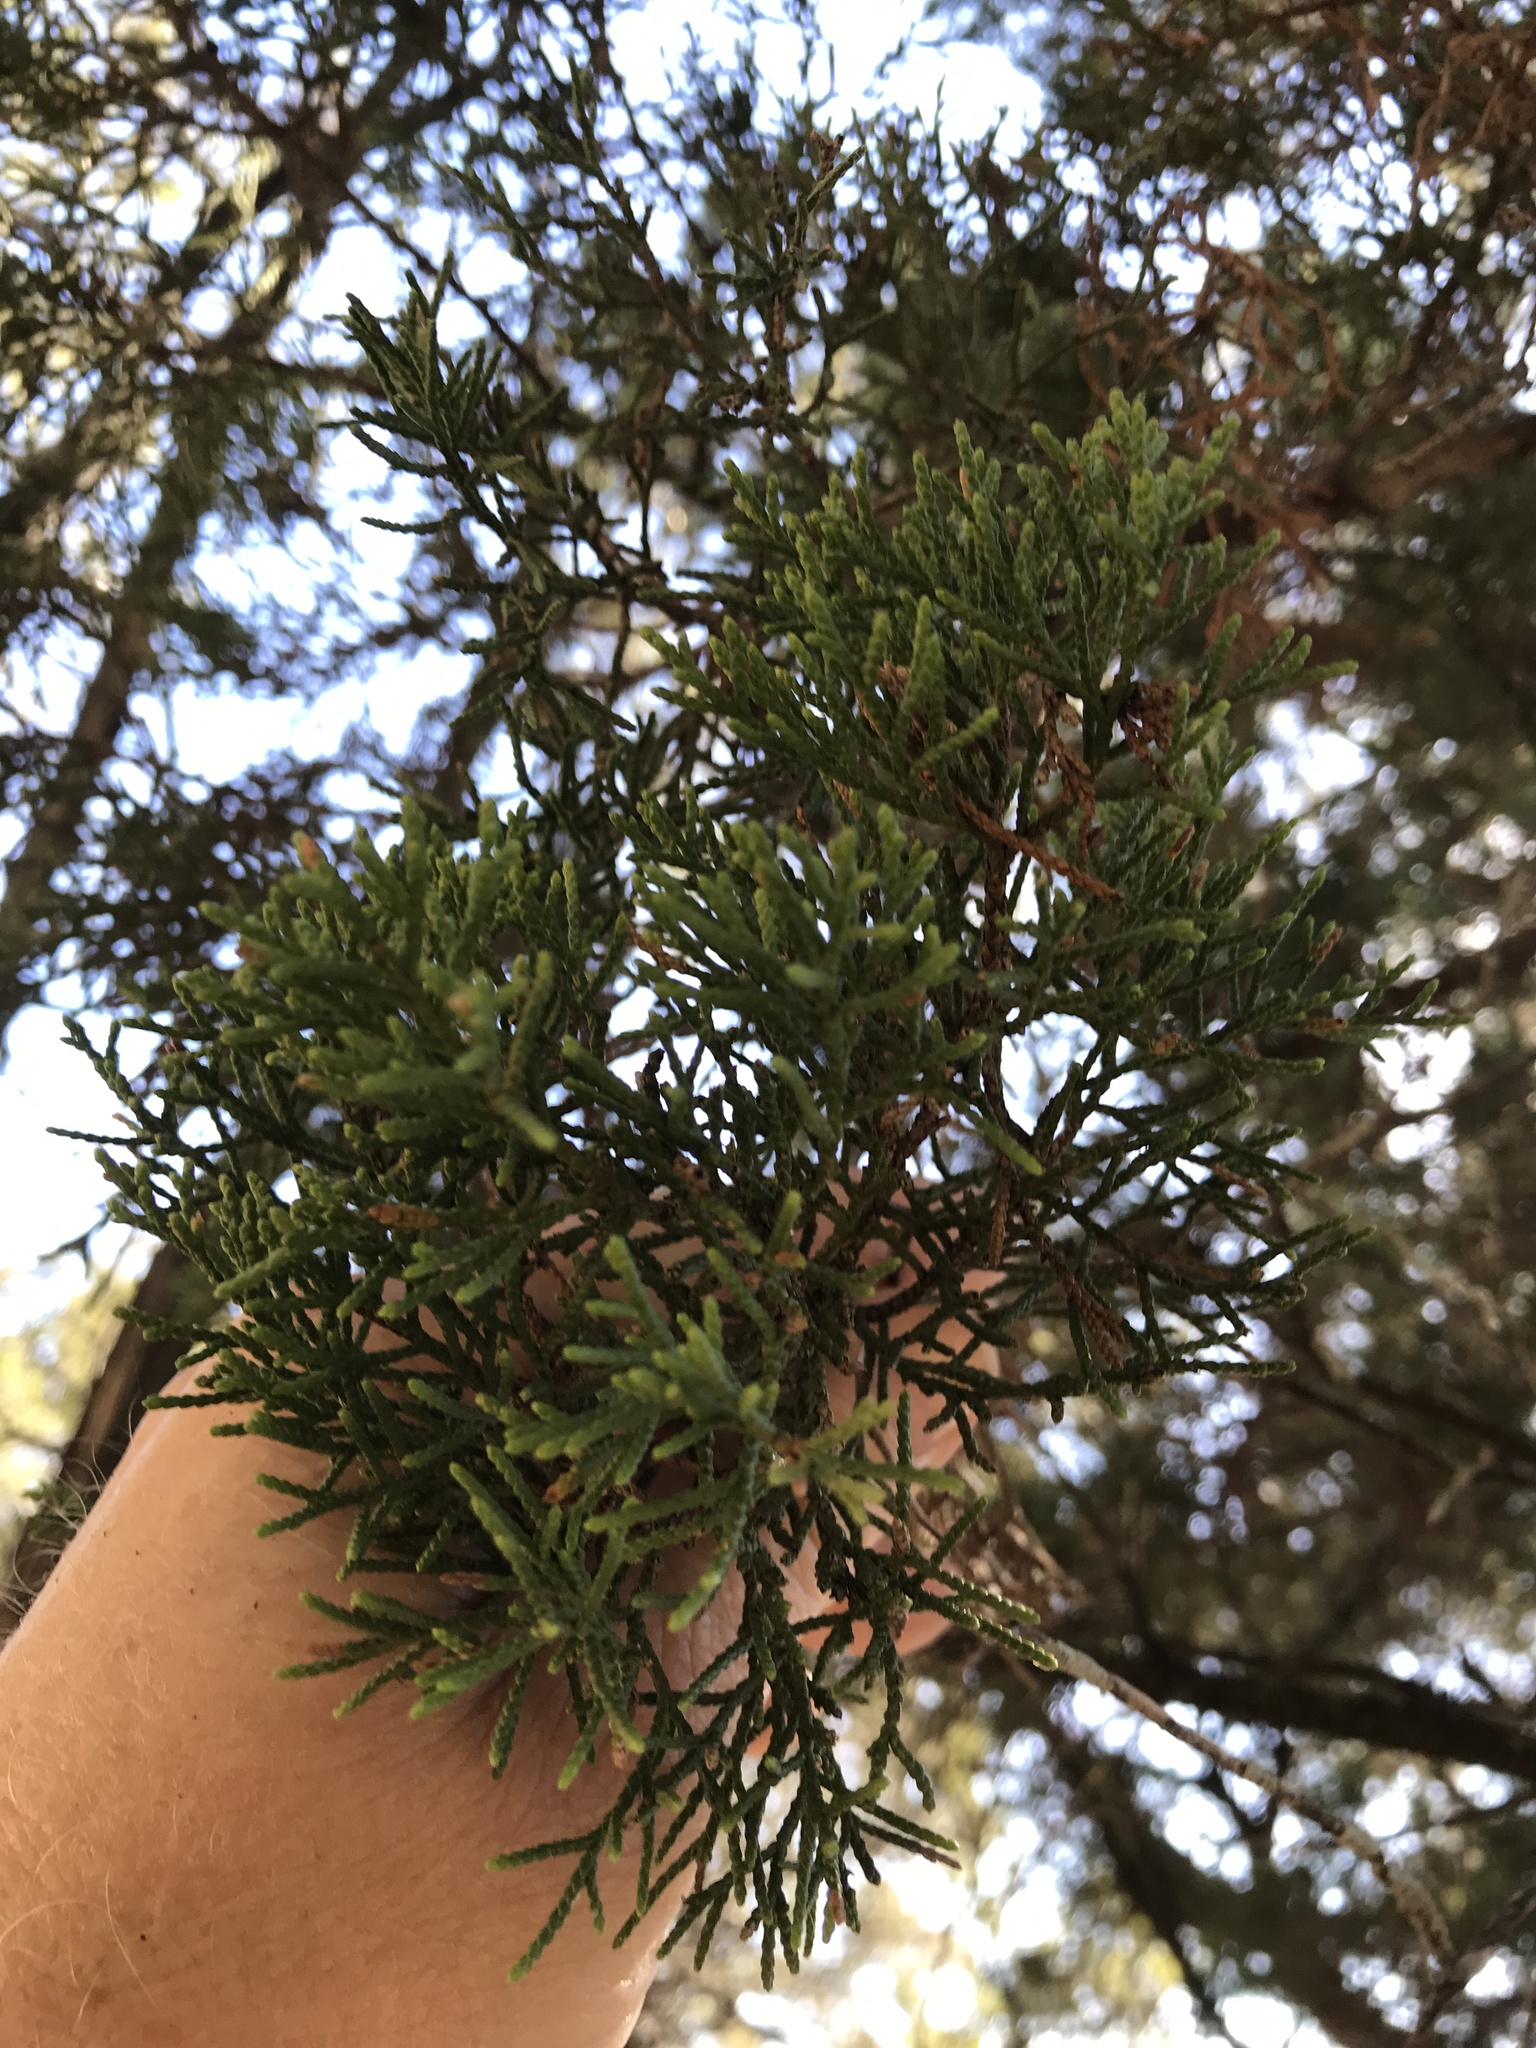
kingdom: Plantae
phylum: Tracheophyta
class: Pinopsida
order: Pinales
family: Cupressaceae
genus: Juniperus
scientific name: Juniperus ashei
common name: Mexican juniper
